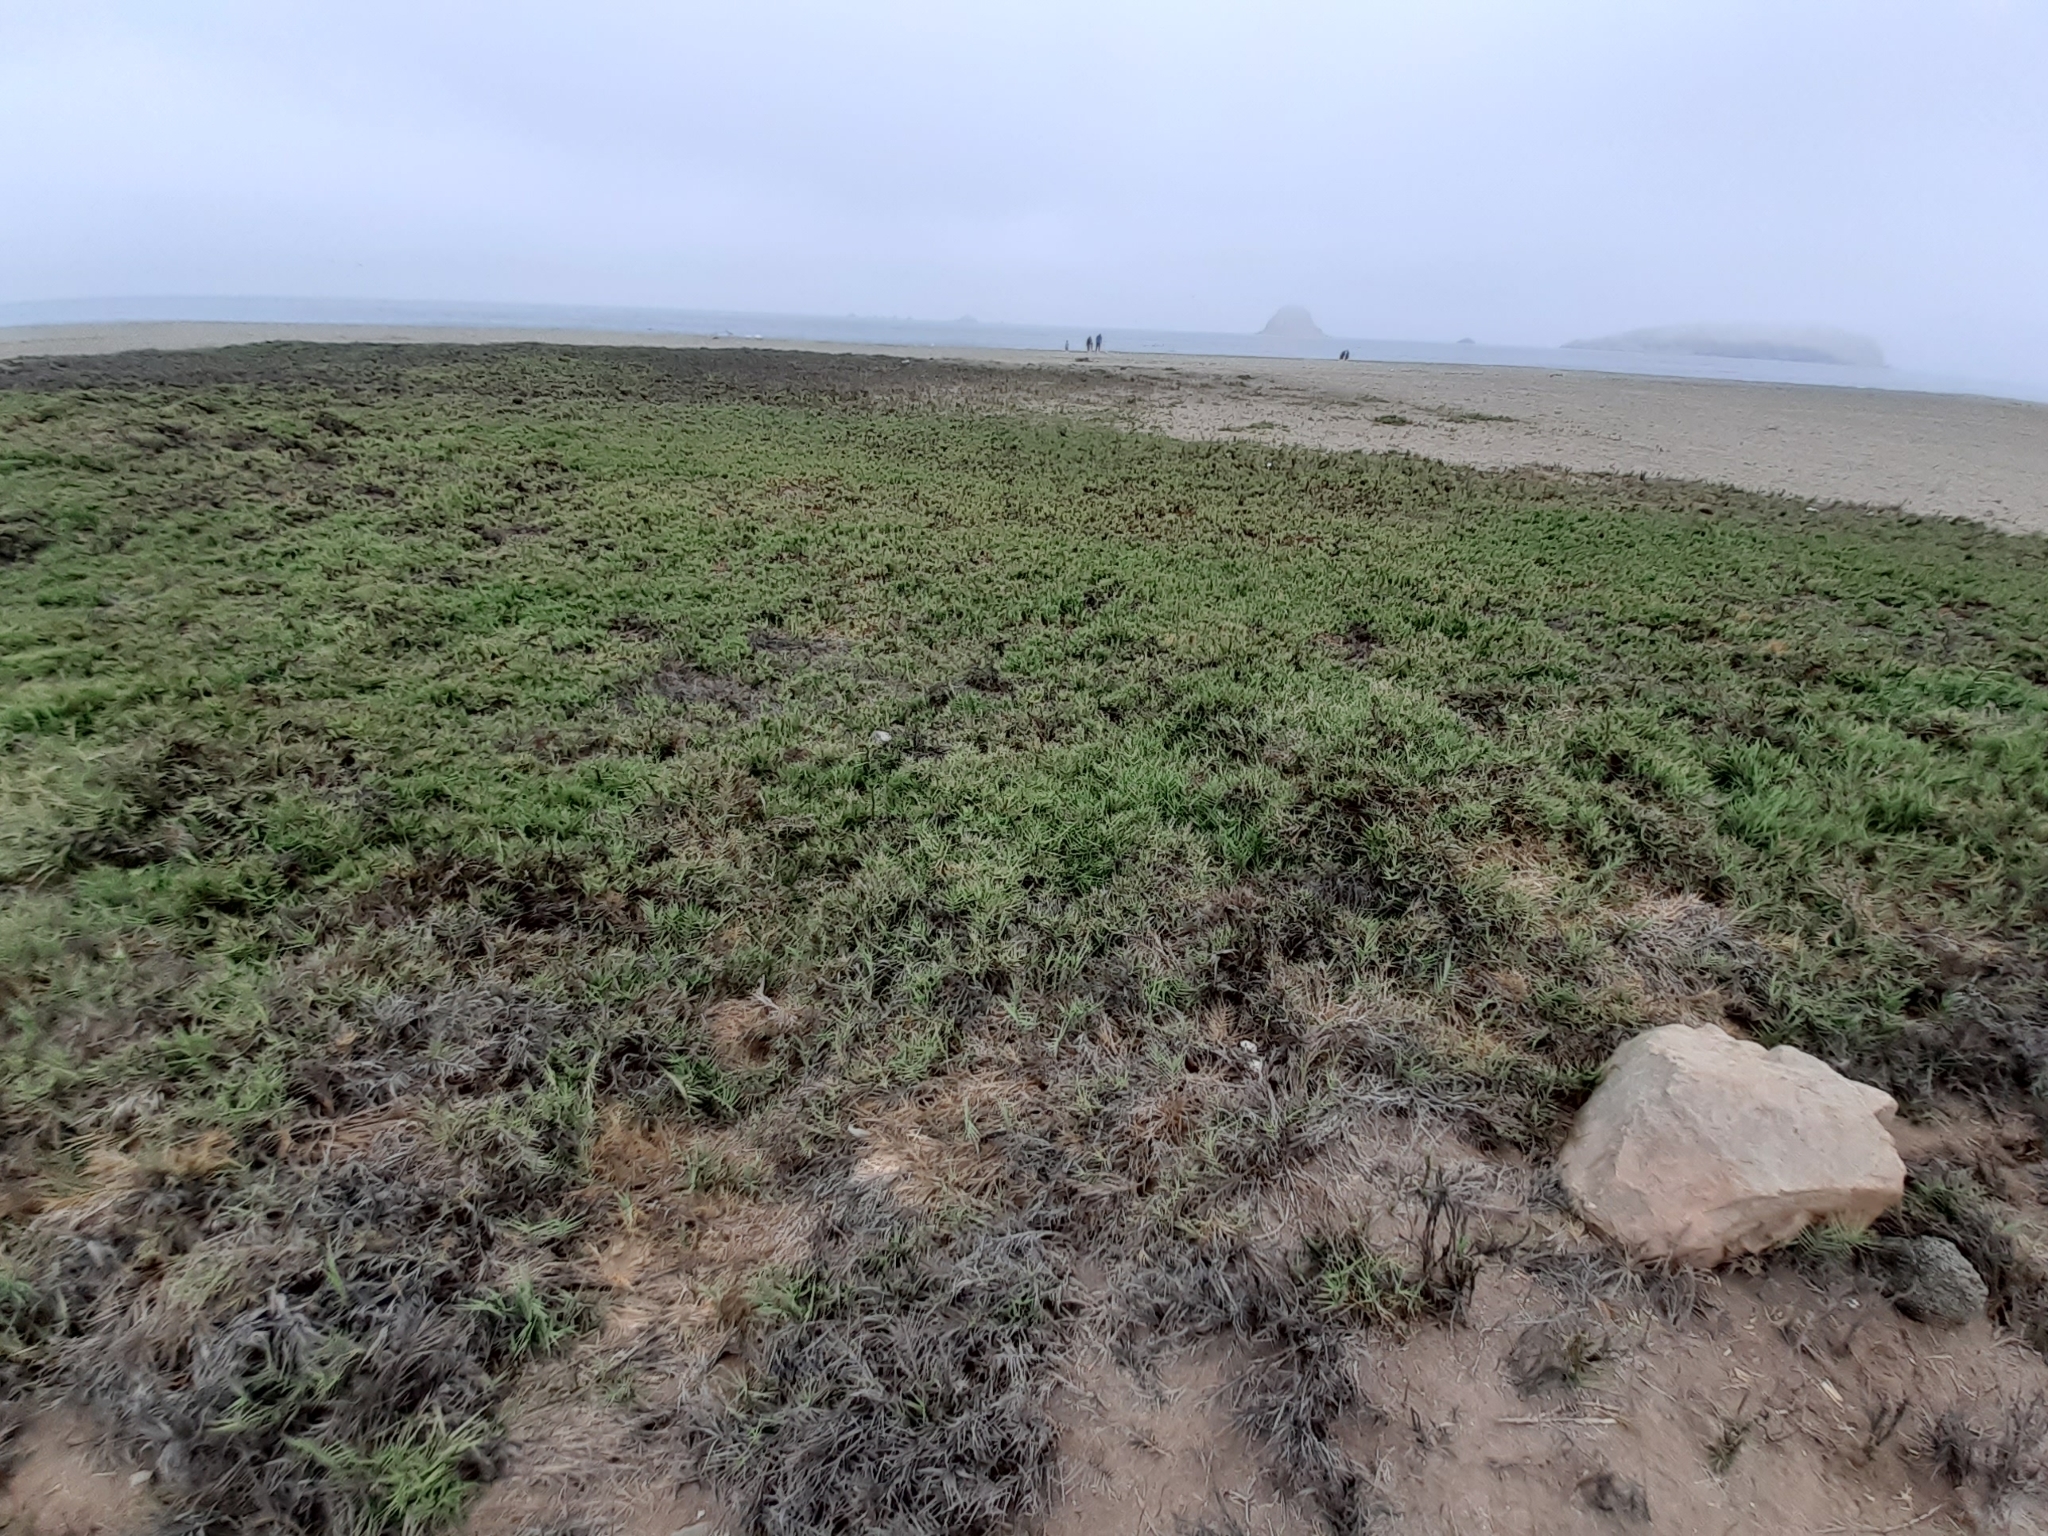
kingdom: Plantae
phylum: Tracheophyta
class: Liliopsida
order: Poales
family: Poaceae
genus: Distichlis
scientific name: Distichlis spicata
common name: Saltgrass
